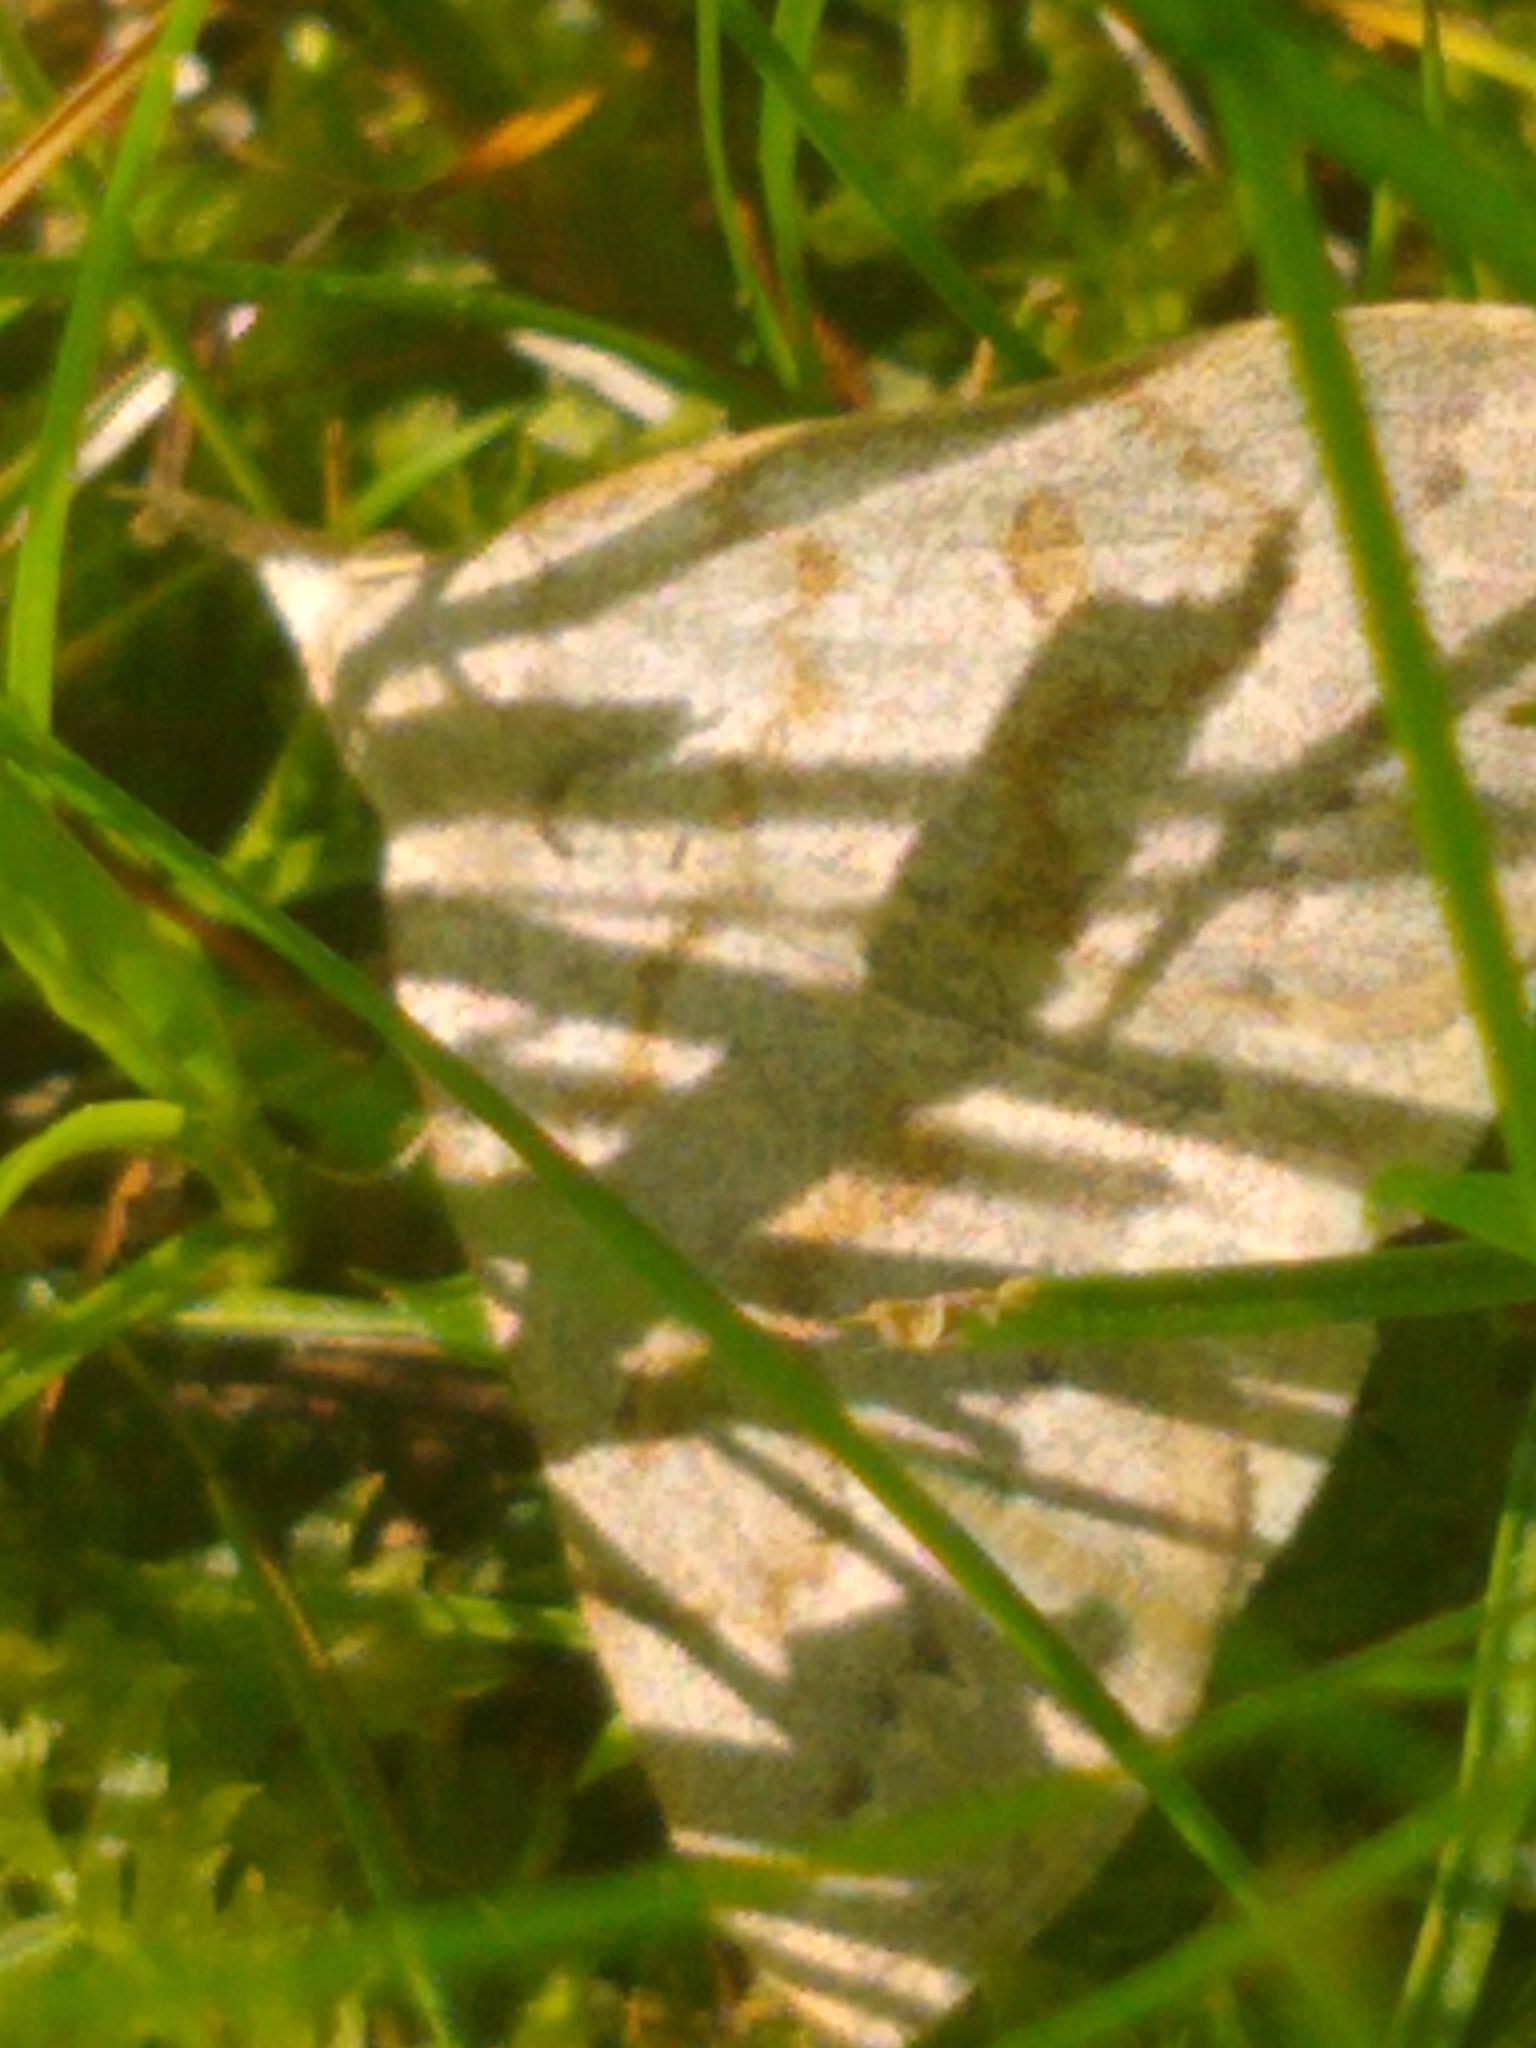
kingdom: Animalia
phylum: Arthropoda
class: Insecta
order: Lepidoptera
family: Erebidae
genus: Macrochilo
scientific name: Macrochilo morbidalis
